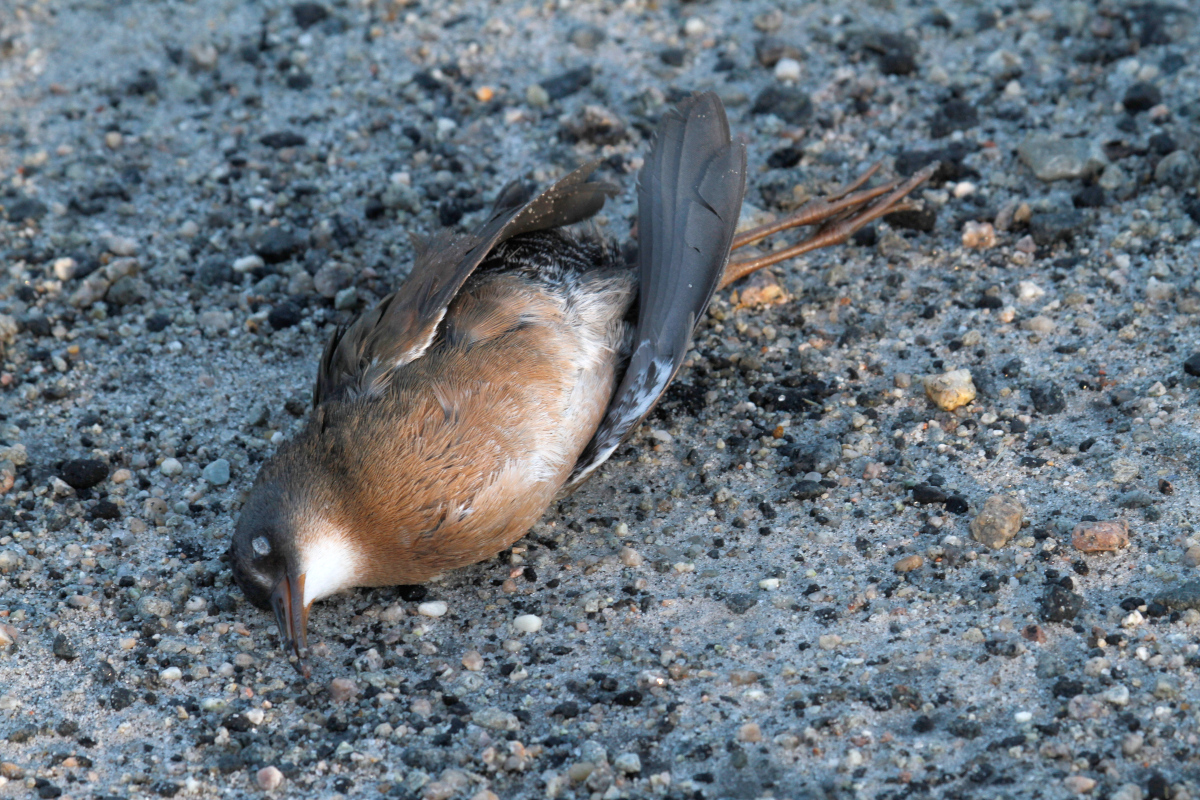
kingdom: Animalia
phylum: Chordata
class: Aves
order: Gruiformes
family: Rallidae
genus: Rallus
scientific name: Rallus limicola
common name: Virginia rail
